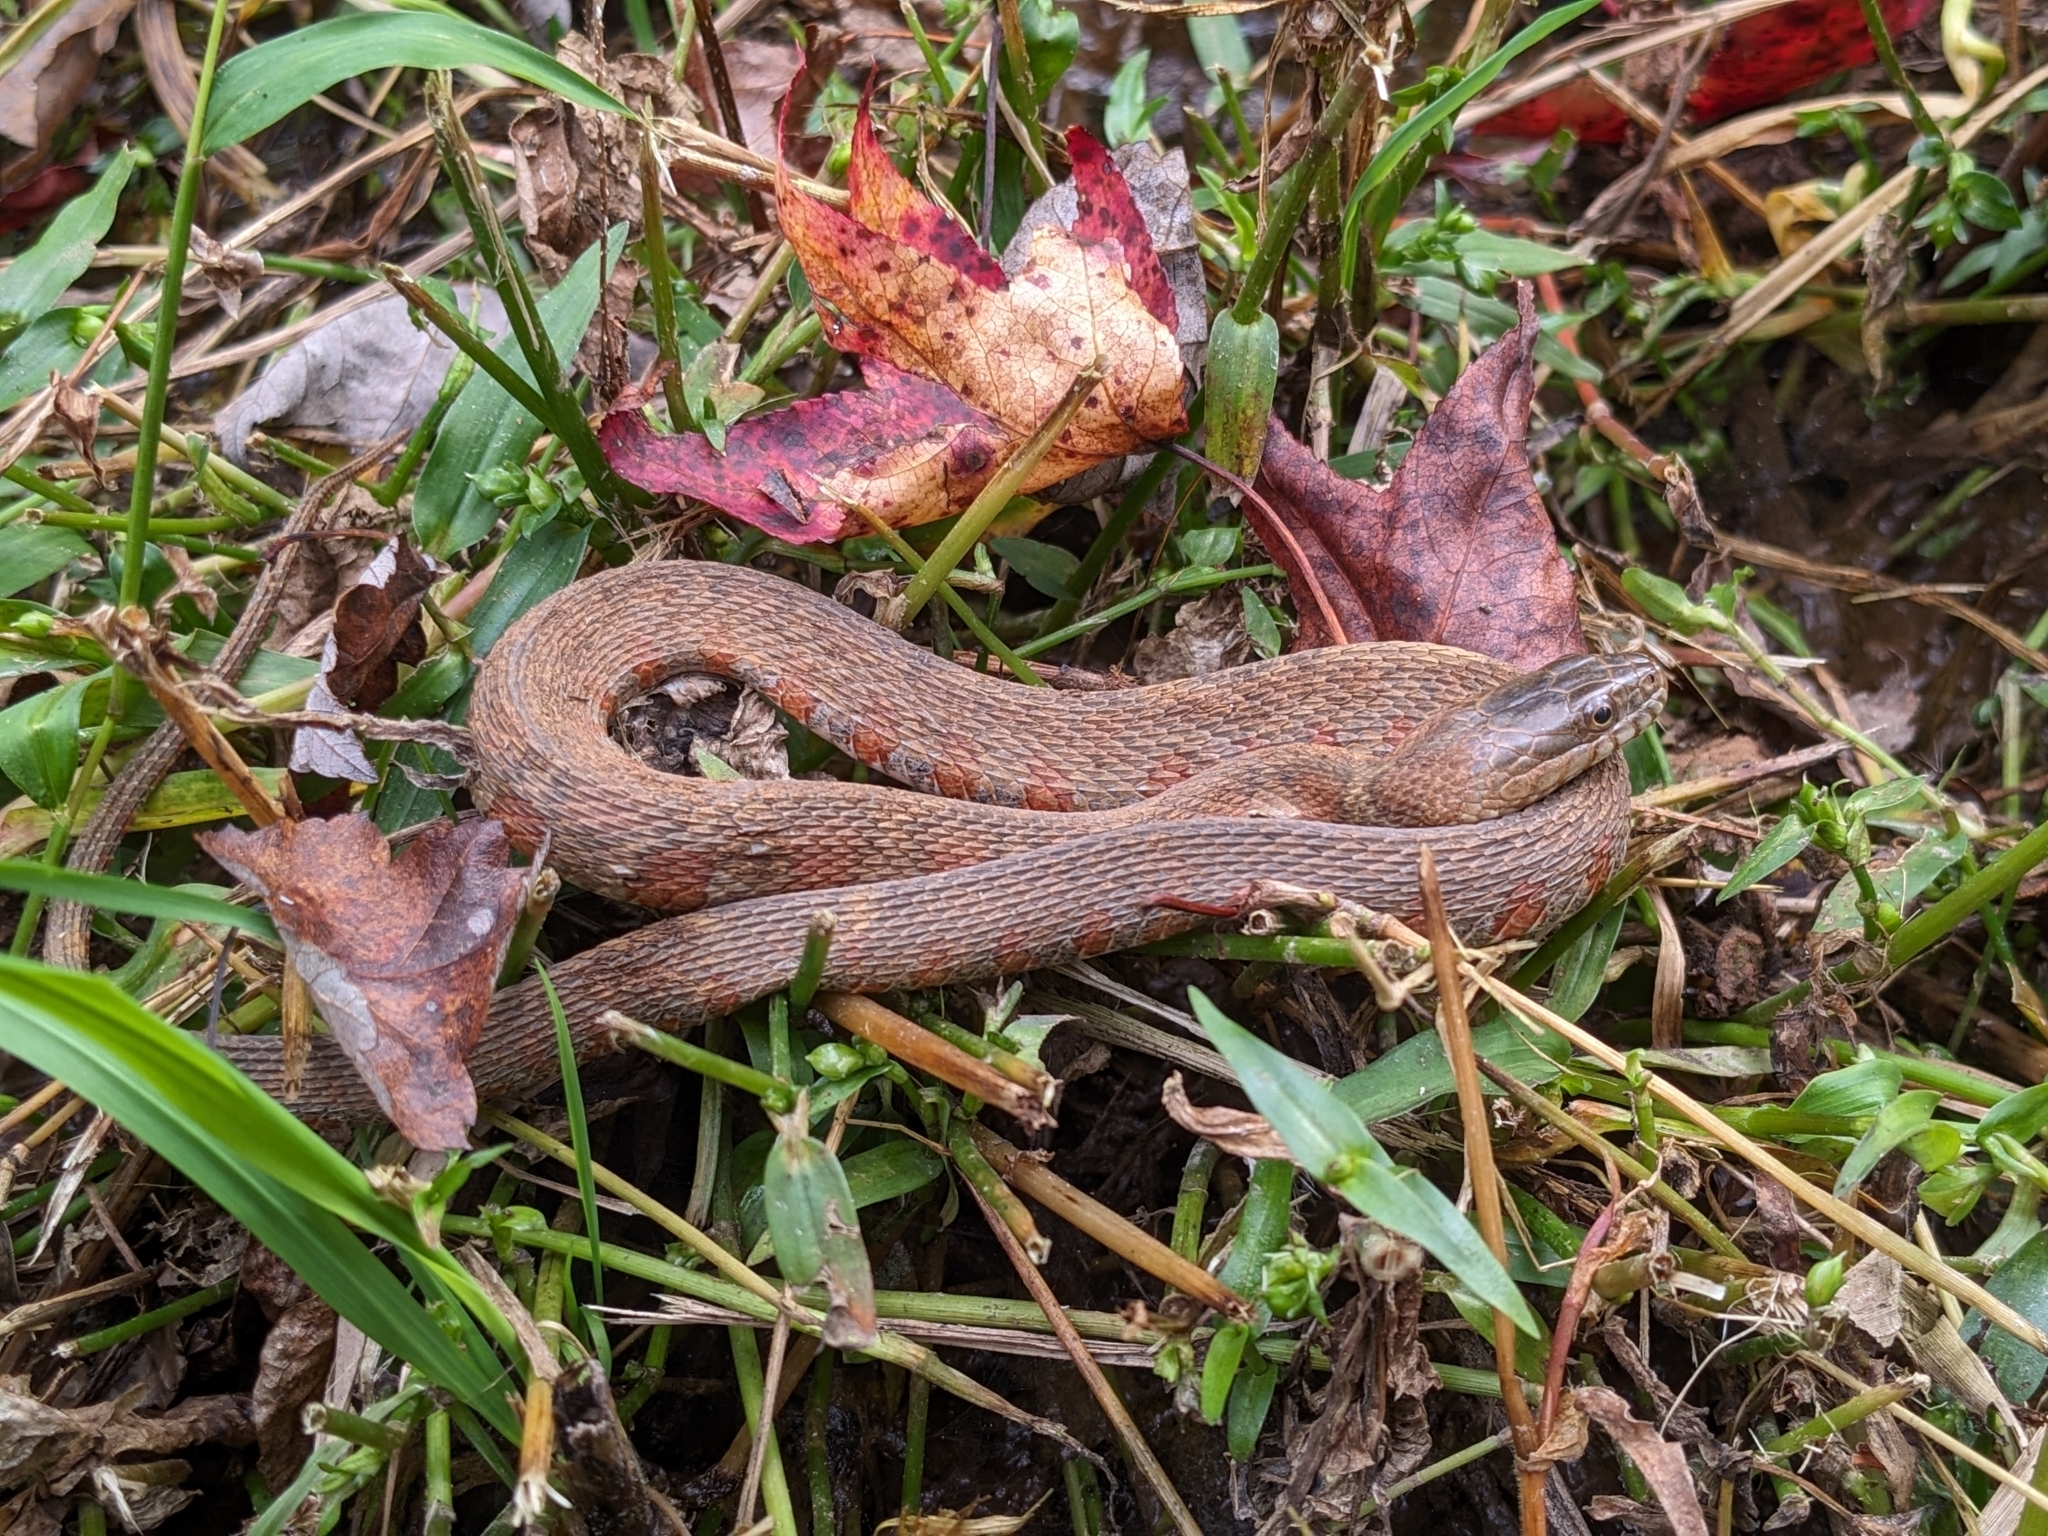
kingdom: Animalia
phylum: Chordata
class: Squamata
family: Colubridae
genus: Nerodia
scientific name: Nerodia sipedon
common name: Northern water snake
